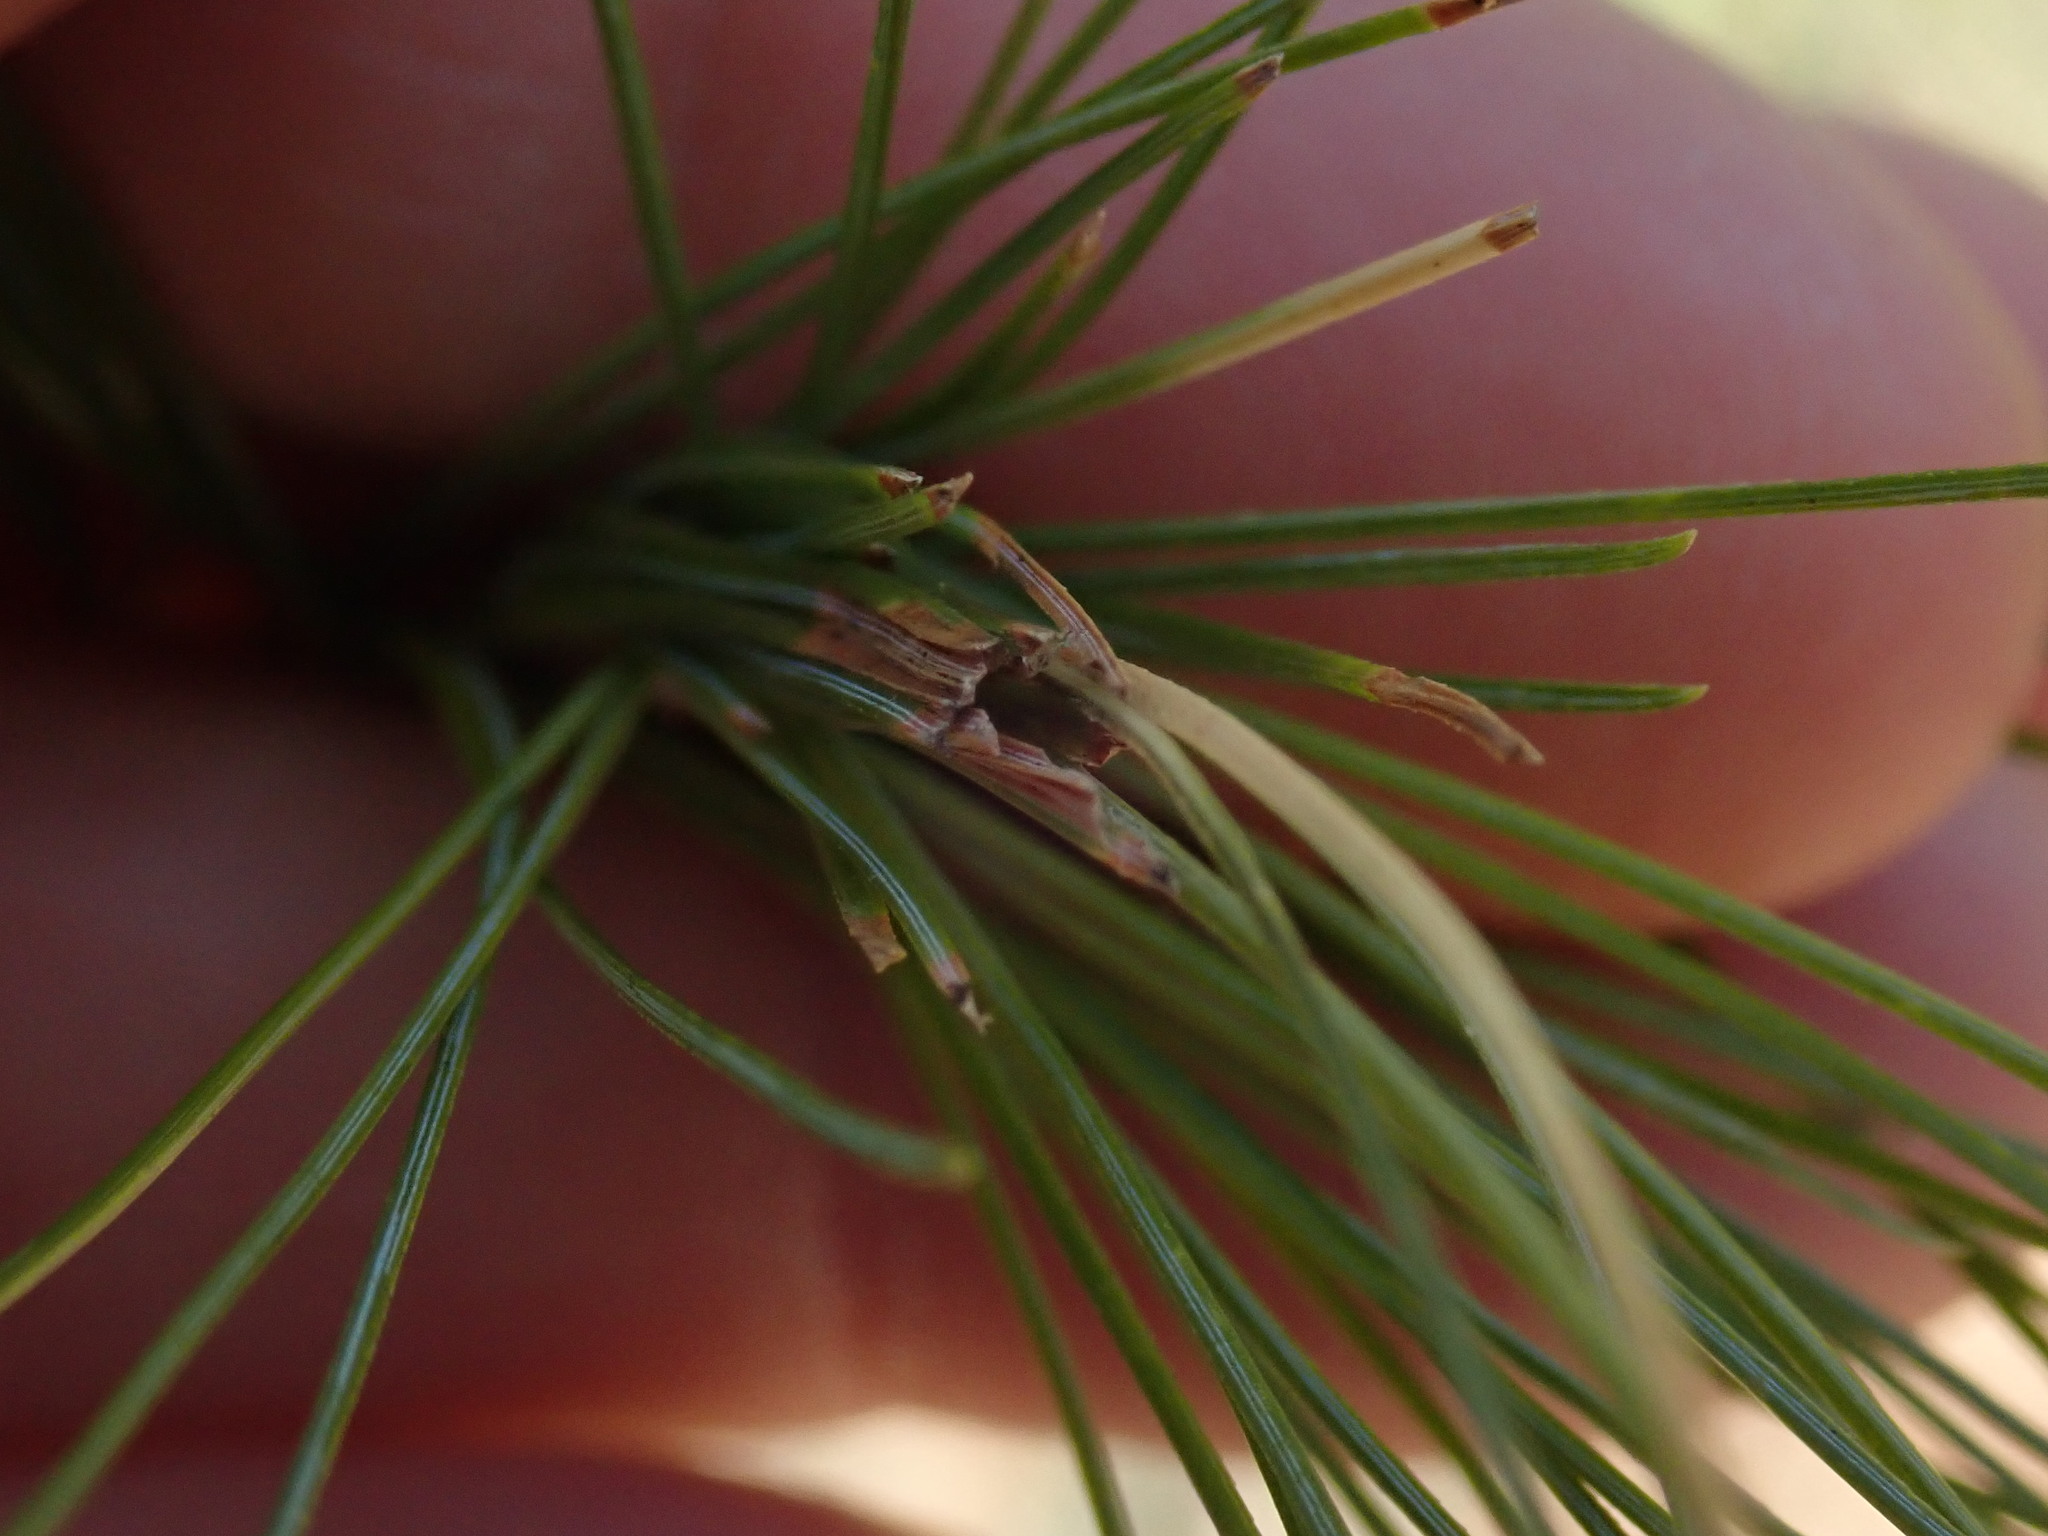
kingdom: Animalia
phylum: Arthropoda
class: Insecta
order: Lepidoptera
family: Tortricidae
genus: Argyrotaenia
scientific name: Argyrotaenia pinatubana
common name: Pine tube moth
